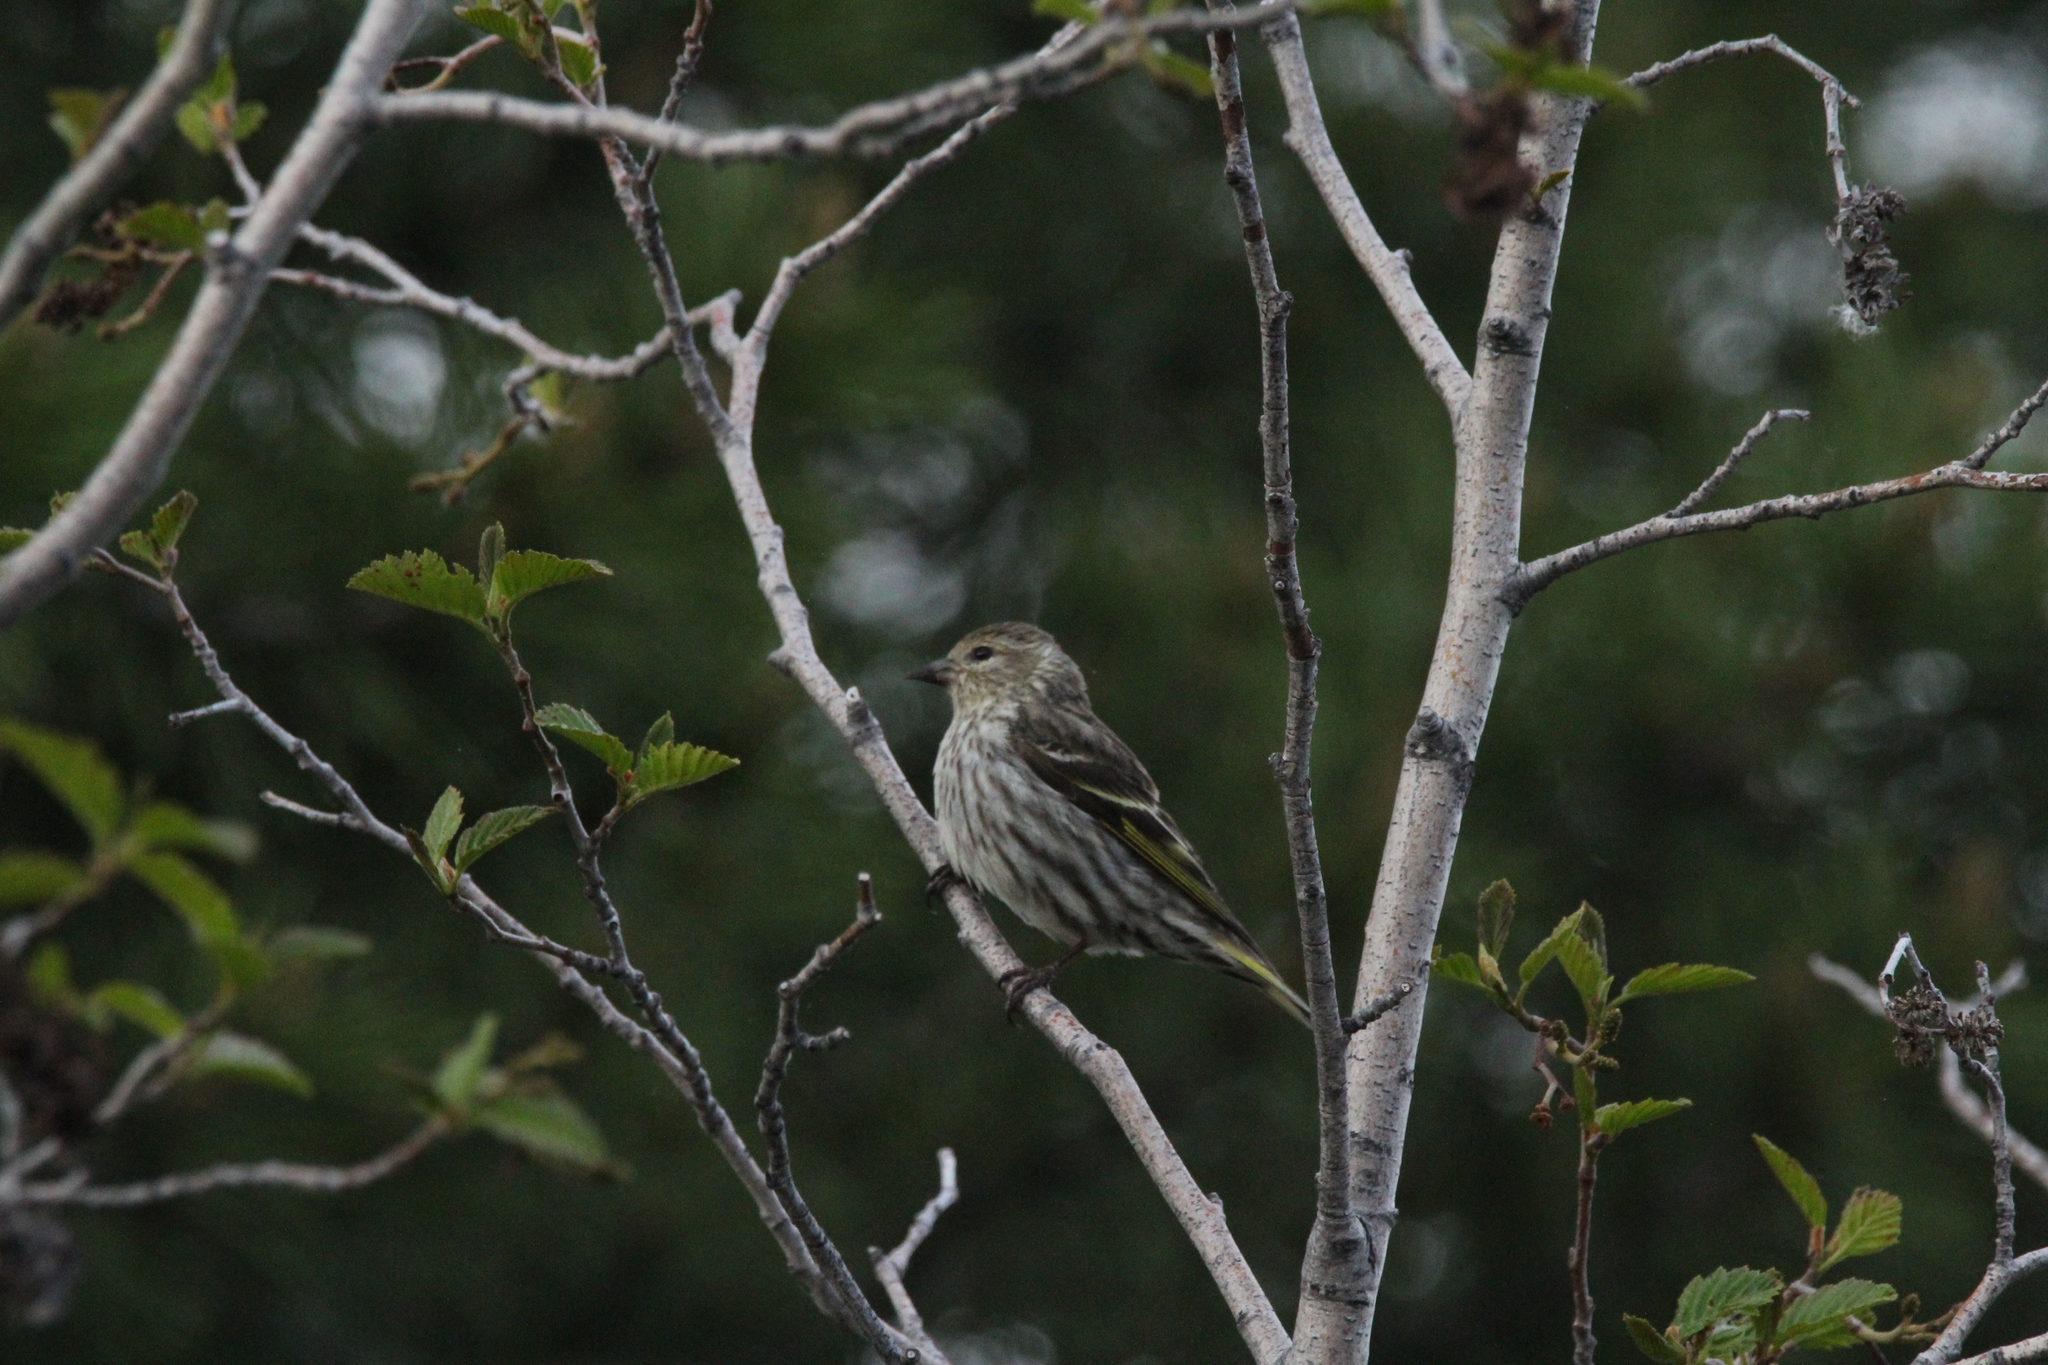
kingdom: Animalia
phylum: Chordata
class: Aves
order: Passeriformes
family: Fringillidae
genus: Spinus
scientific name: Spinus pinus
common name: Pine siskin
